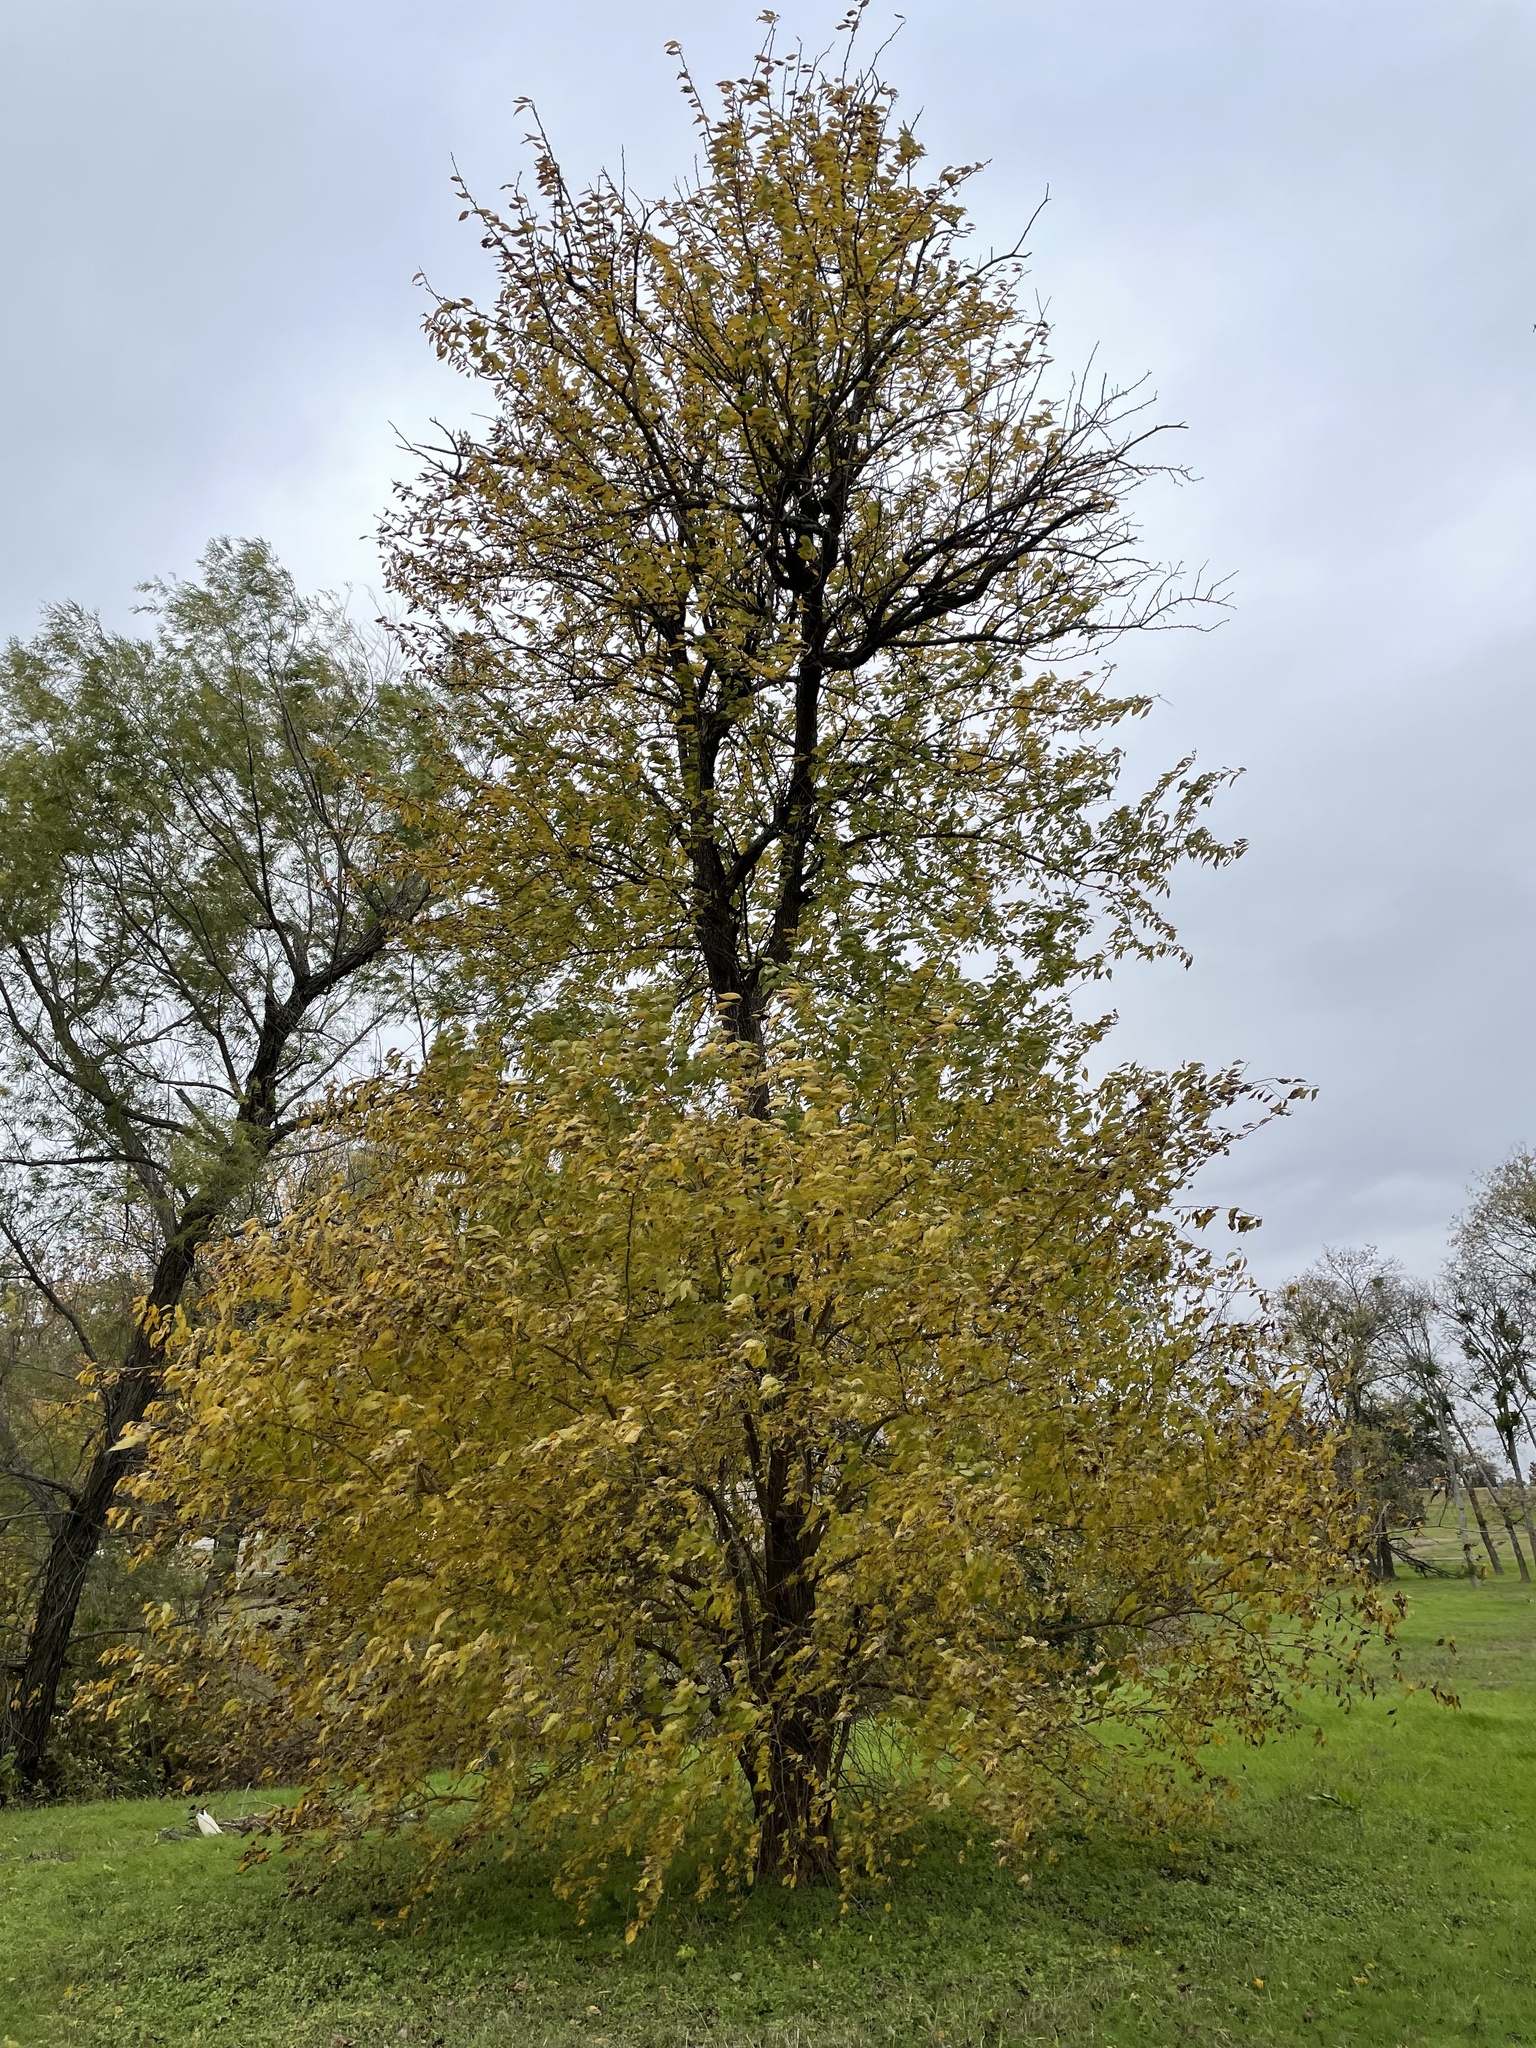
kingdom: Plantae
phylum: Tracheophyta
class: Magnoliopsida
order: Rosales
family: Moraceae
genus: Maclura
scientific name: Maclura pomifera
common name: Osage-orange
